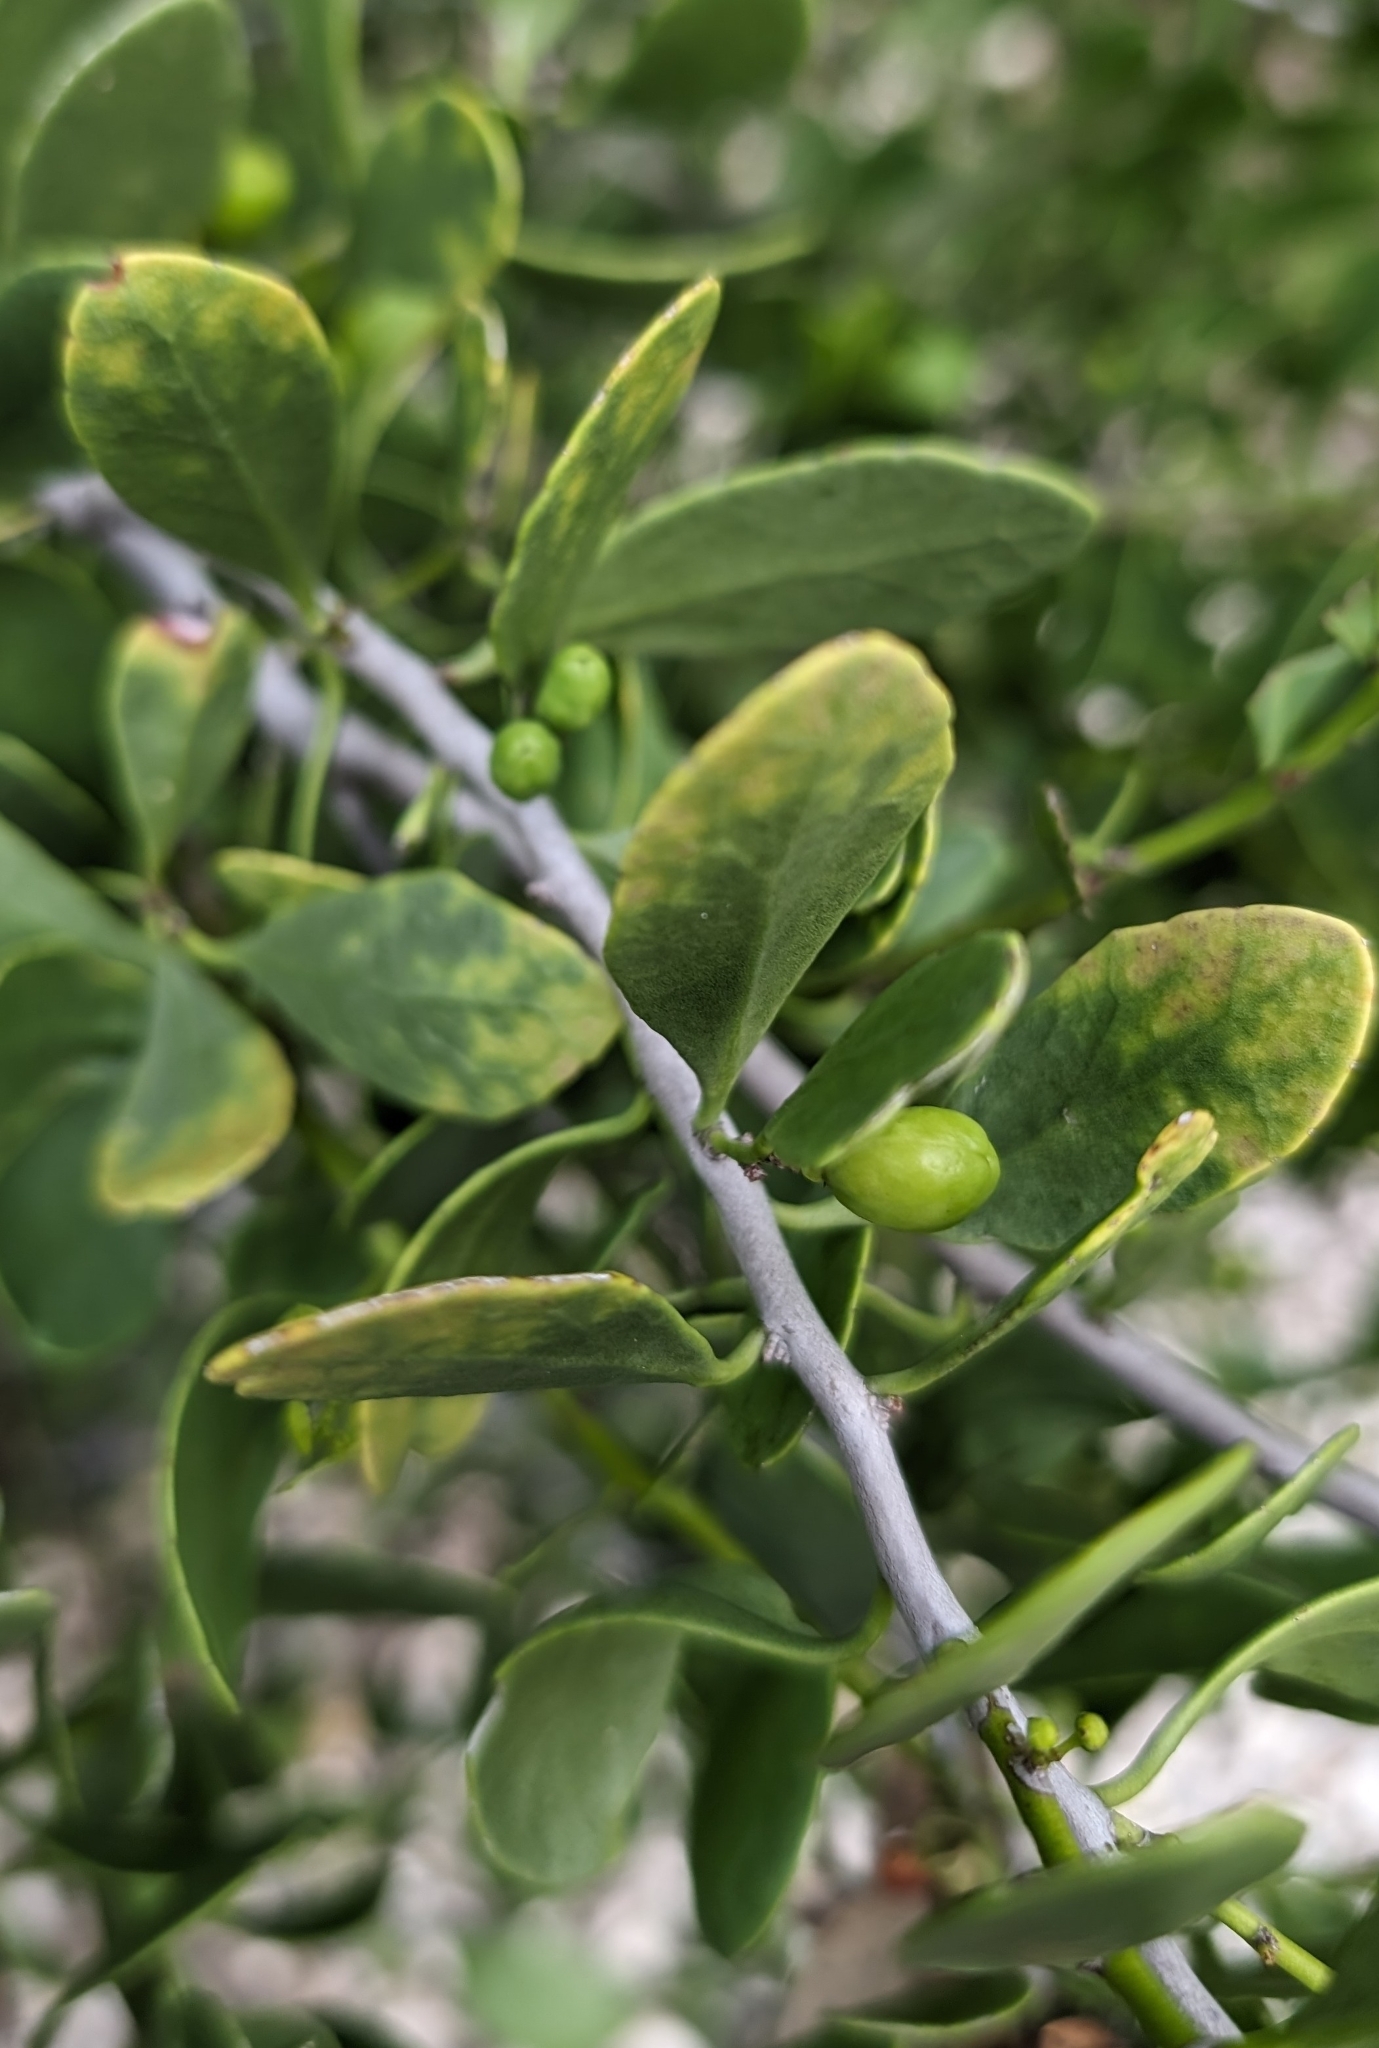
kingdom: Plantae
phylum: Tracheophyta
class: Magnoliopsida
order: Celastrales
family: Celastraceae
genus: Tricerma
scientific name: Tricerma phyllanthoides
